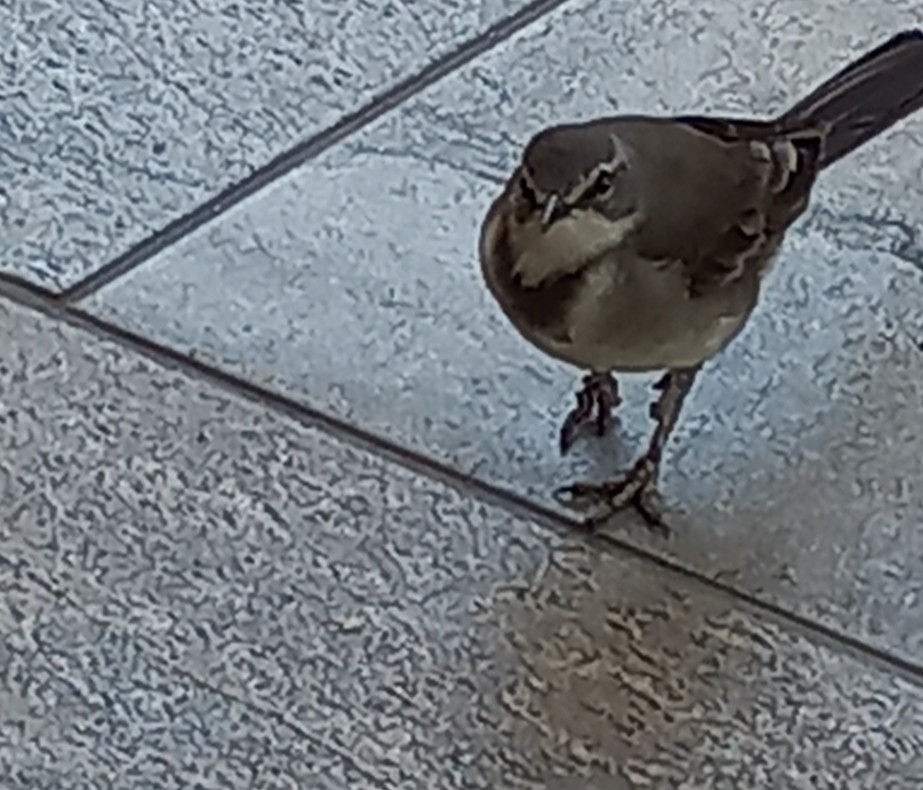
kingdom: Animalia
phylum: Chordata
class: Aves
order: Passeriformes
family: Motacillidae
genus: Motacilla
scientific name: Motacilla capensis
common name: Cape wagtail
